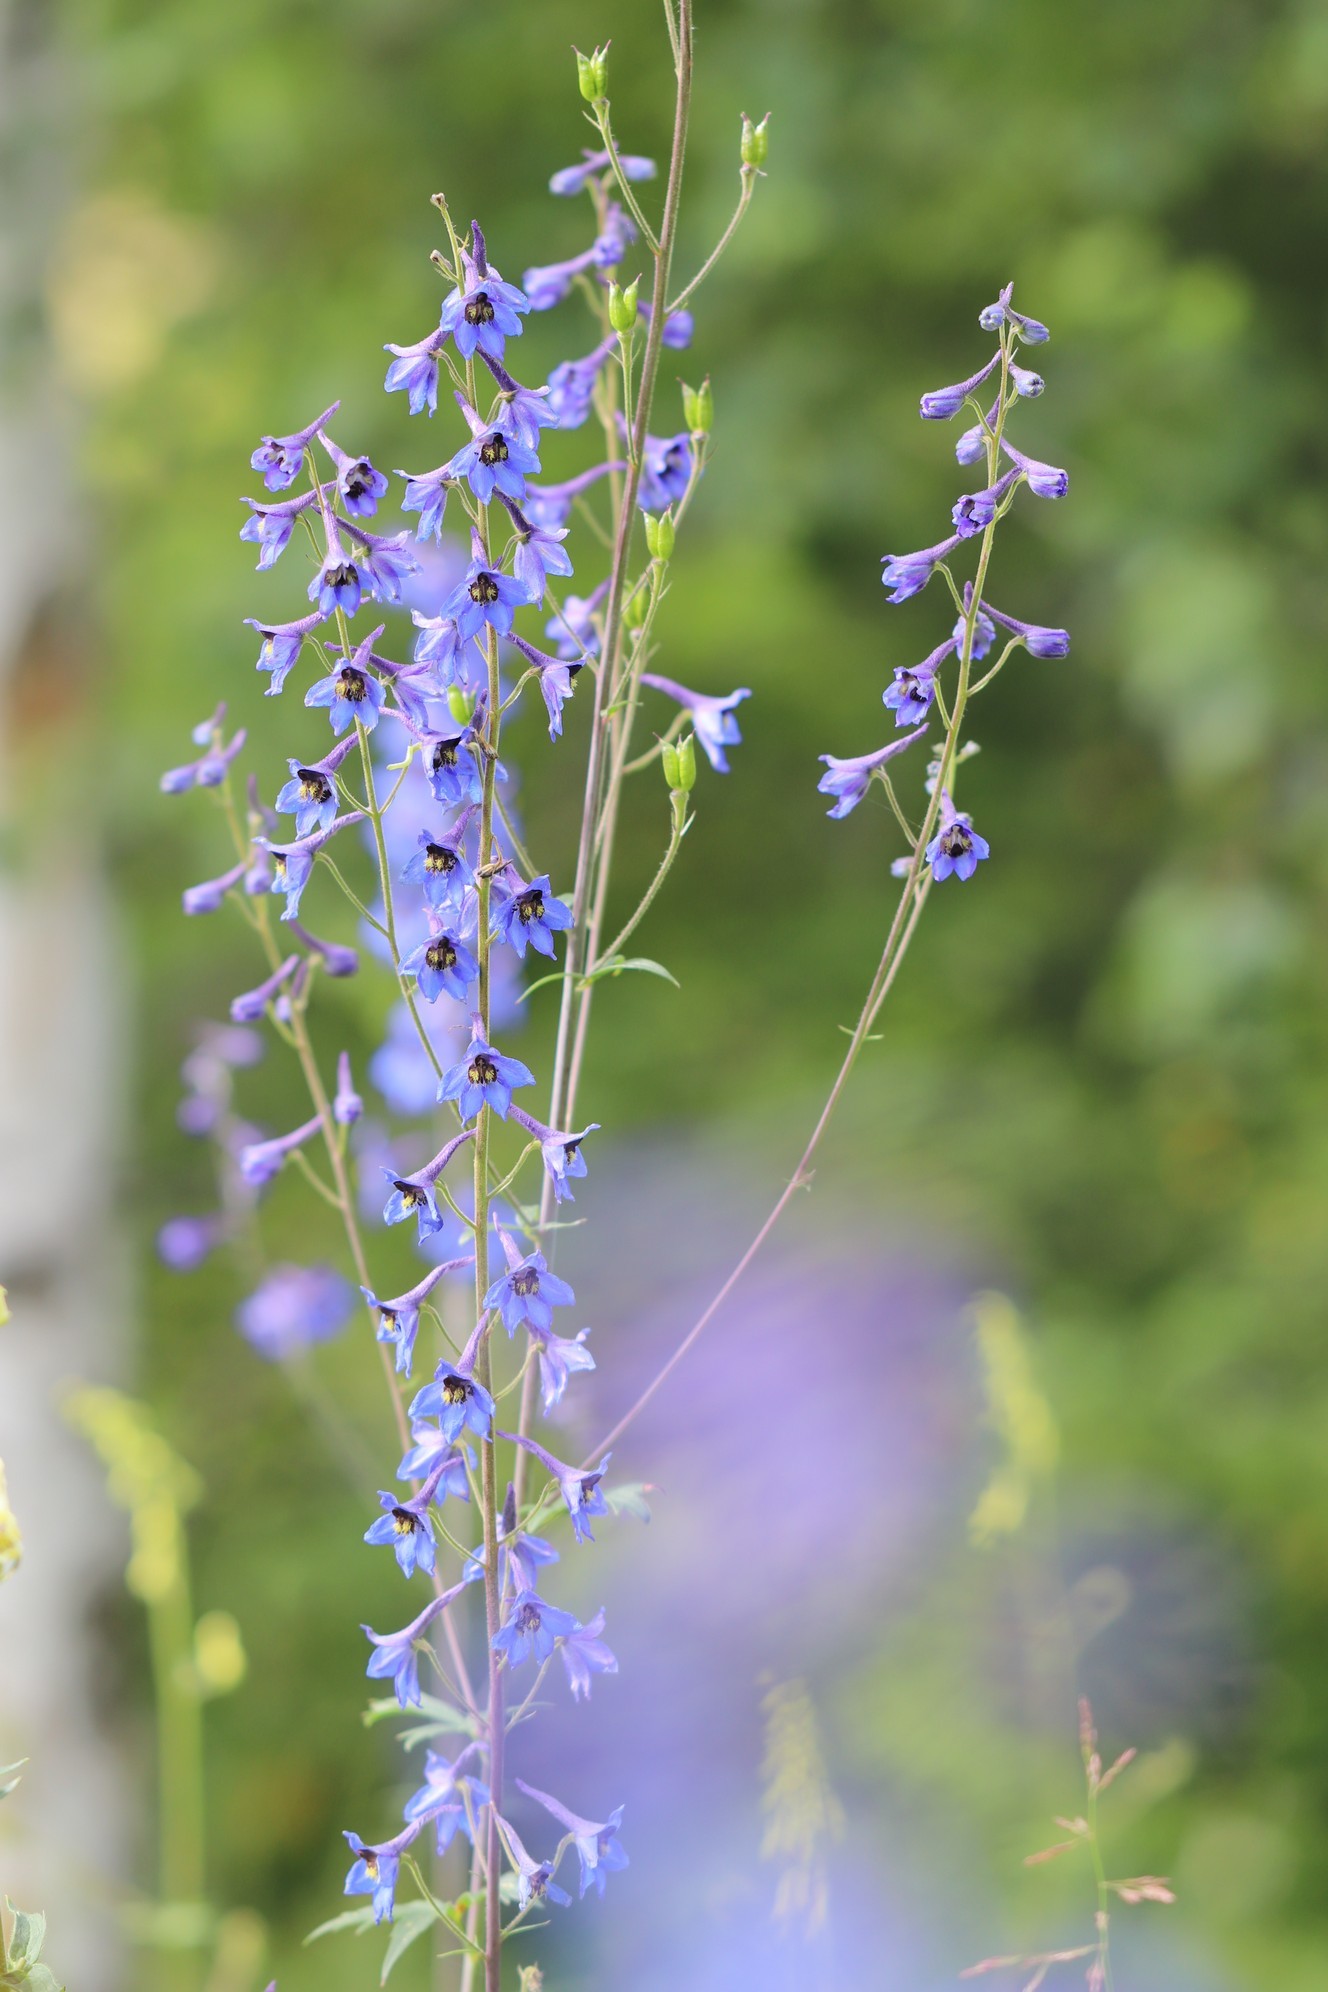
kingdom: Plantae
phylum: Tracheophyta
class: Magnoliopsida
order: Ranunculales
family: Ranunculaceae
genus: Delphinium
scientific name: Delphinium elatum
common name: Candle larkspur
